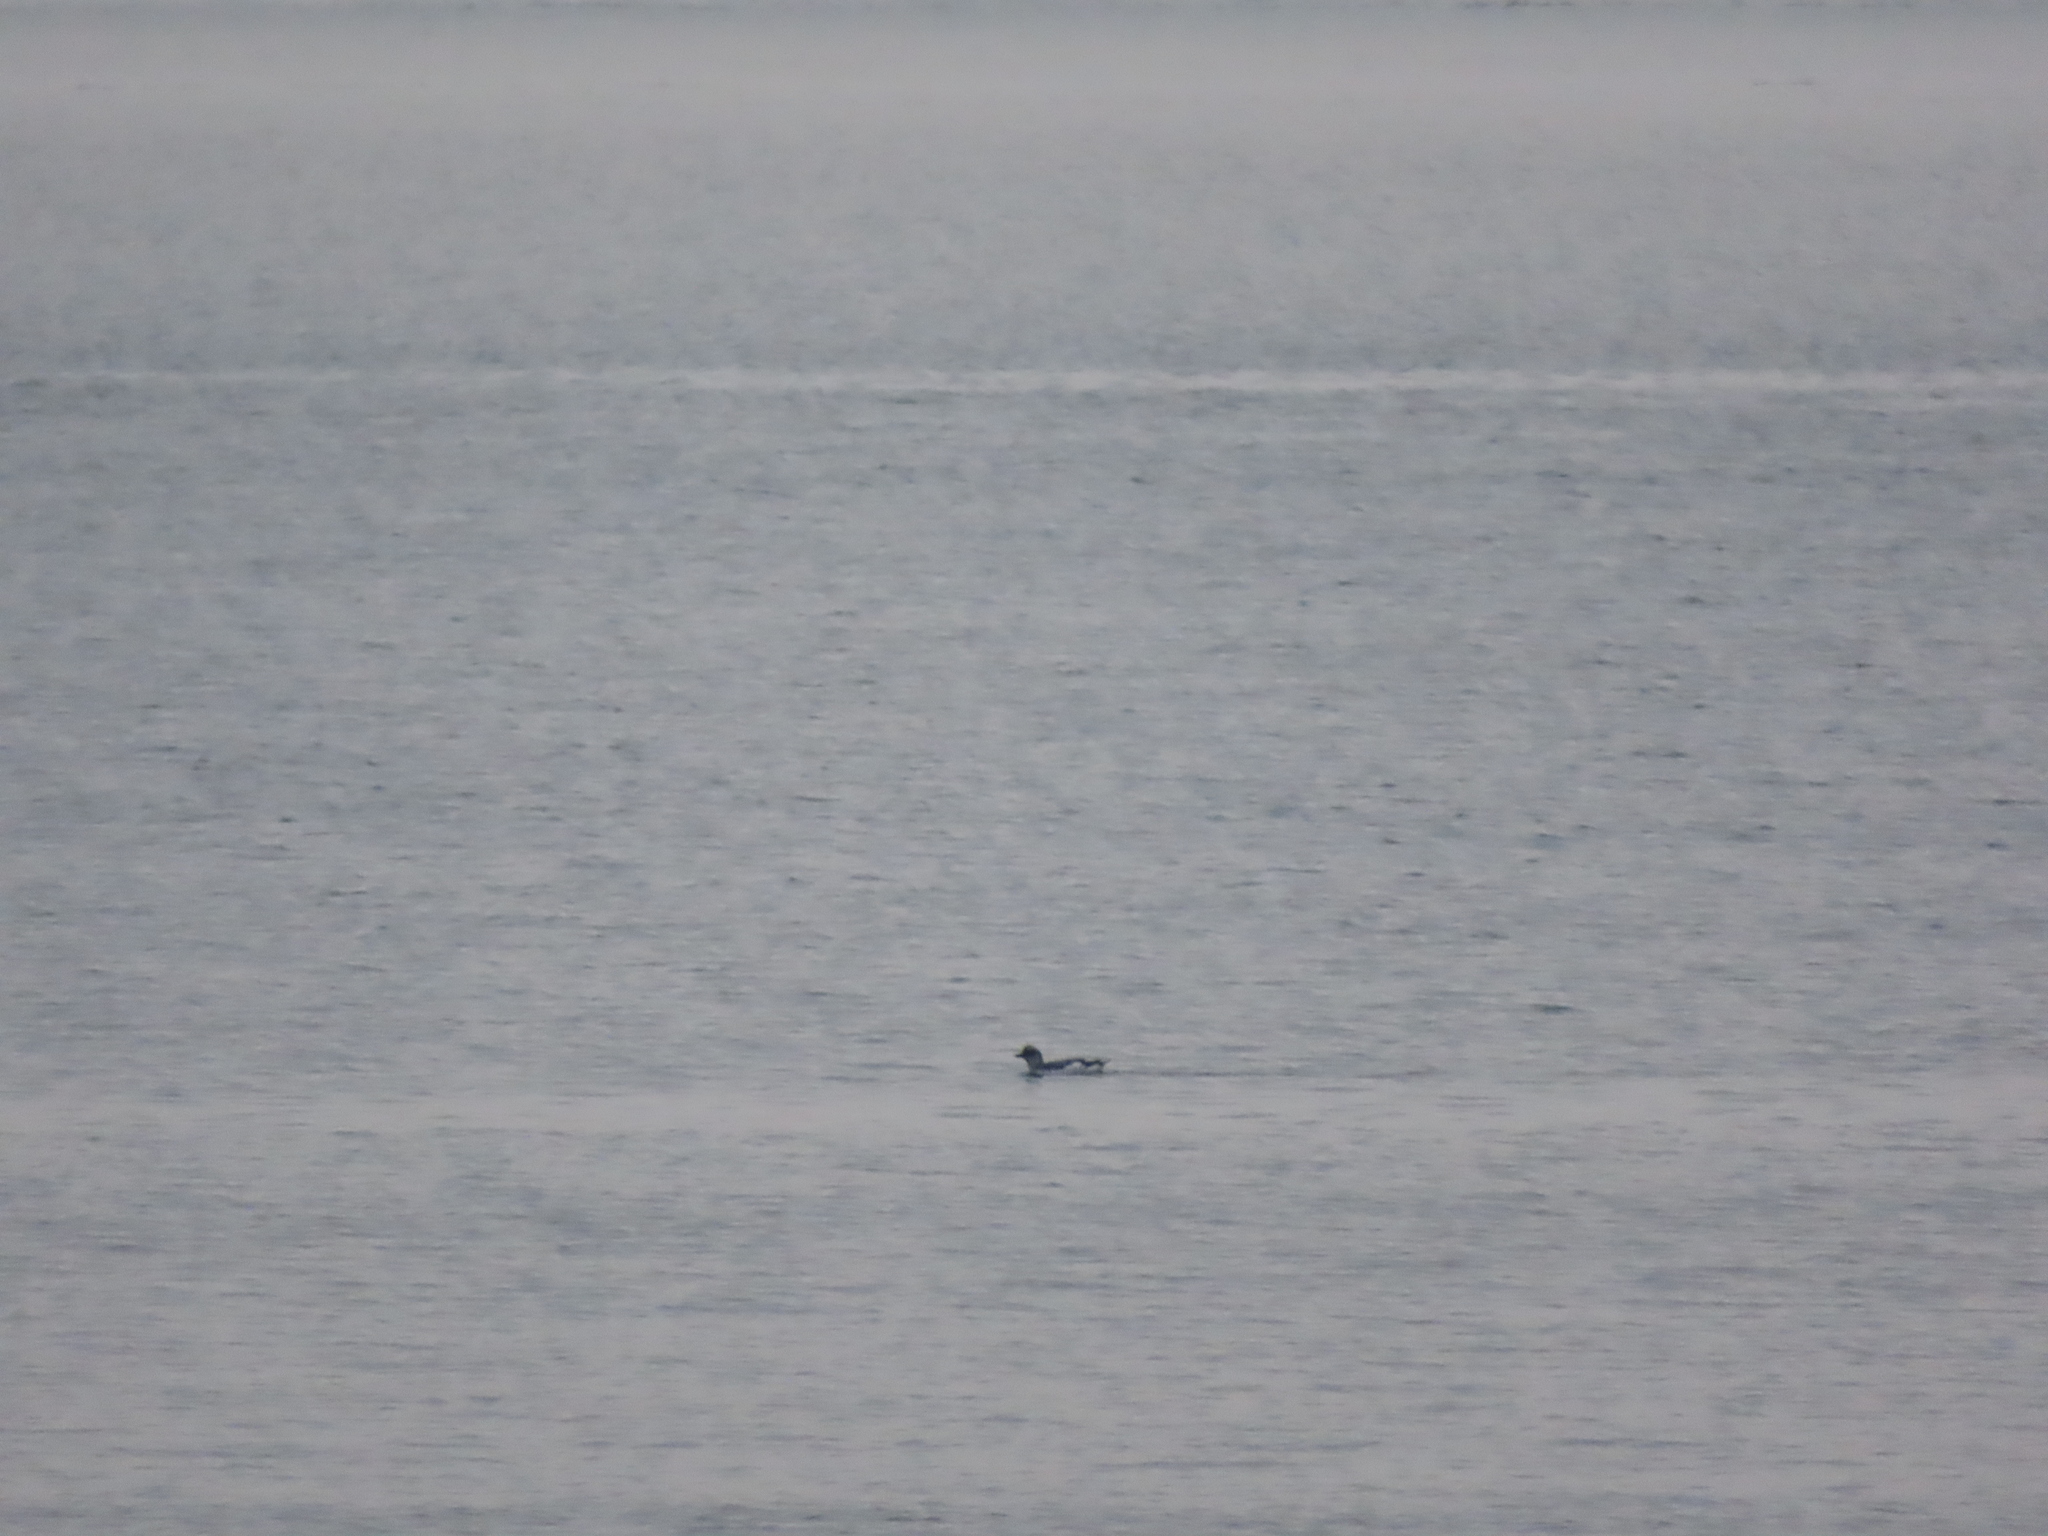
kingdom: Animalia
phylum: Chordata
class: Aves
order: Charadriiformes
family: Alcidae
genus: Cepphus
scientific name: Cepphus columba
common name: Pigeon guillemot
